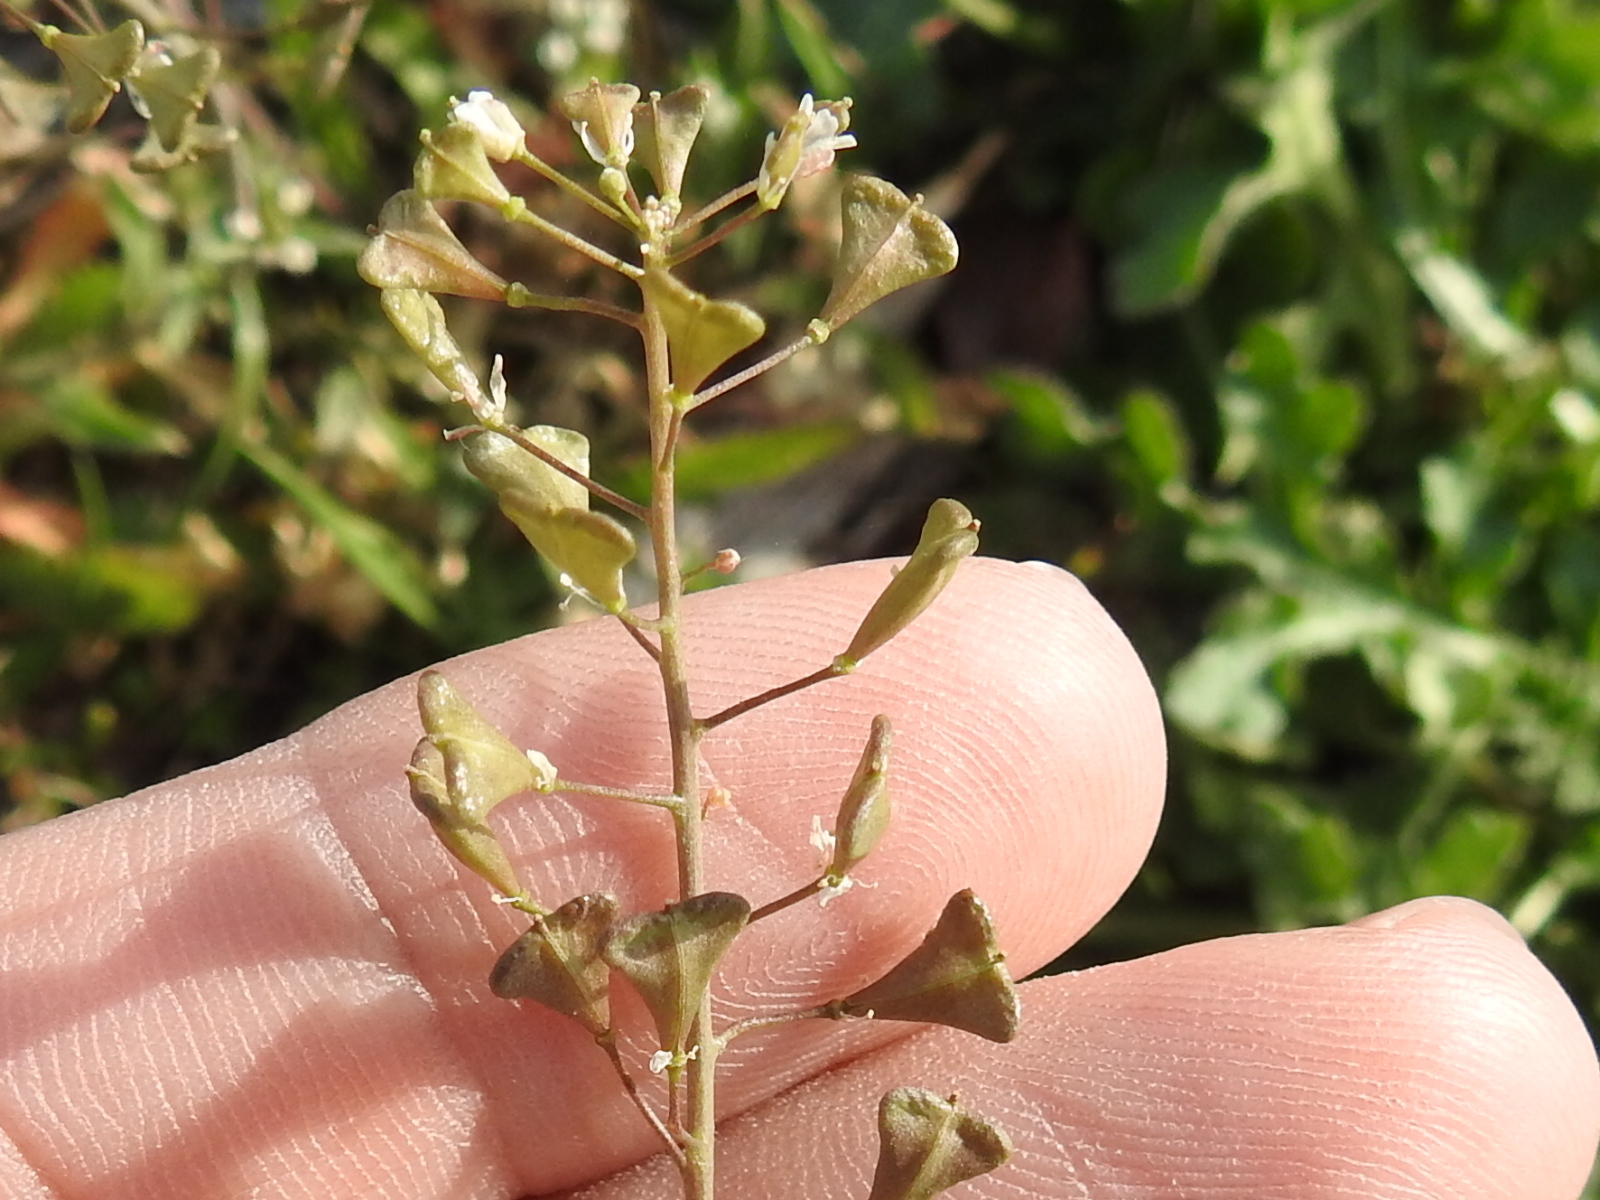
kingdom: Plantae
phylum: Tracheophyta
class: Magnoliopsida
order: Brassicales
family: Brassicaceae
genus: Capsella
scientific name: Capsella bursa-pastoris
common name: Shepherd's purse
